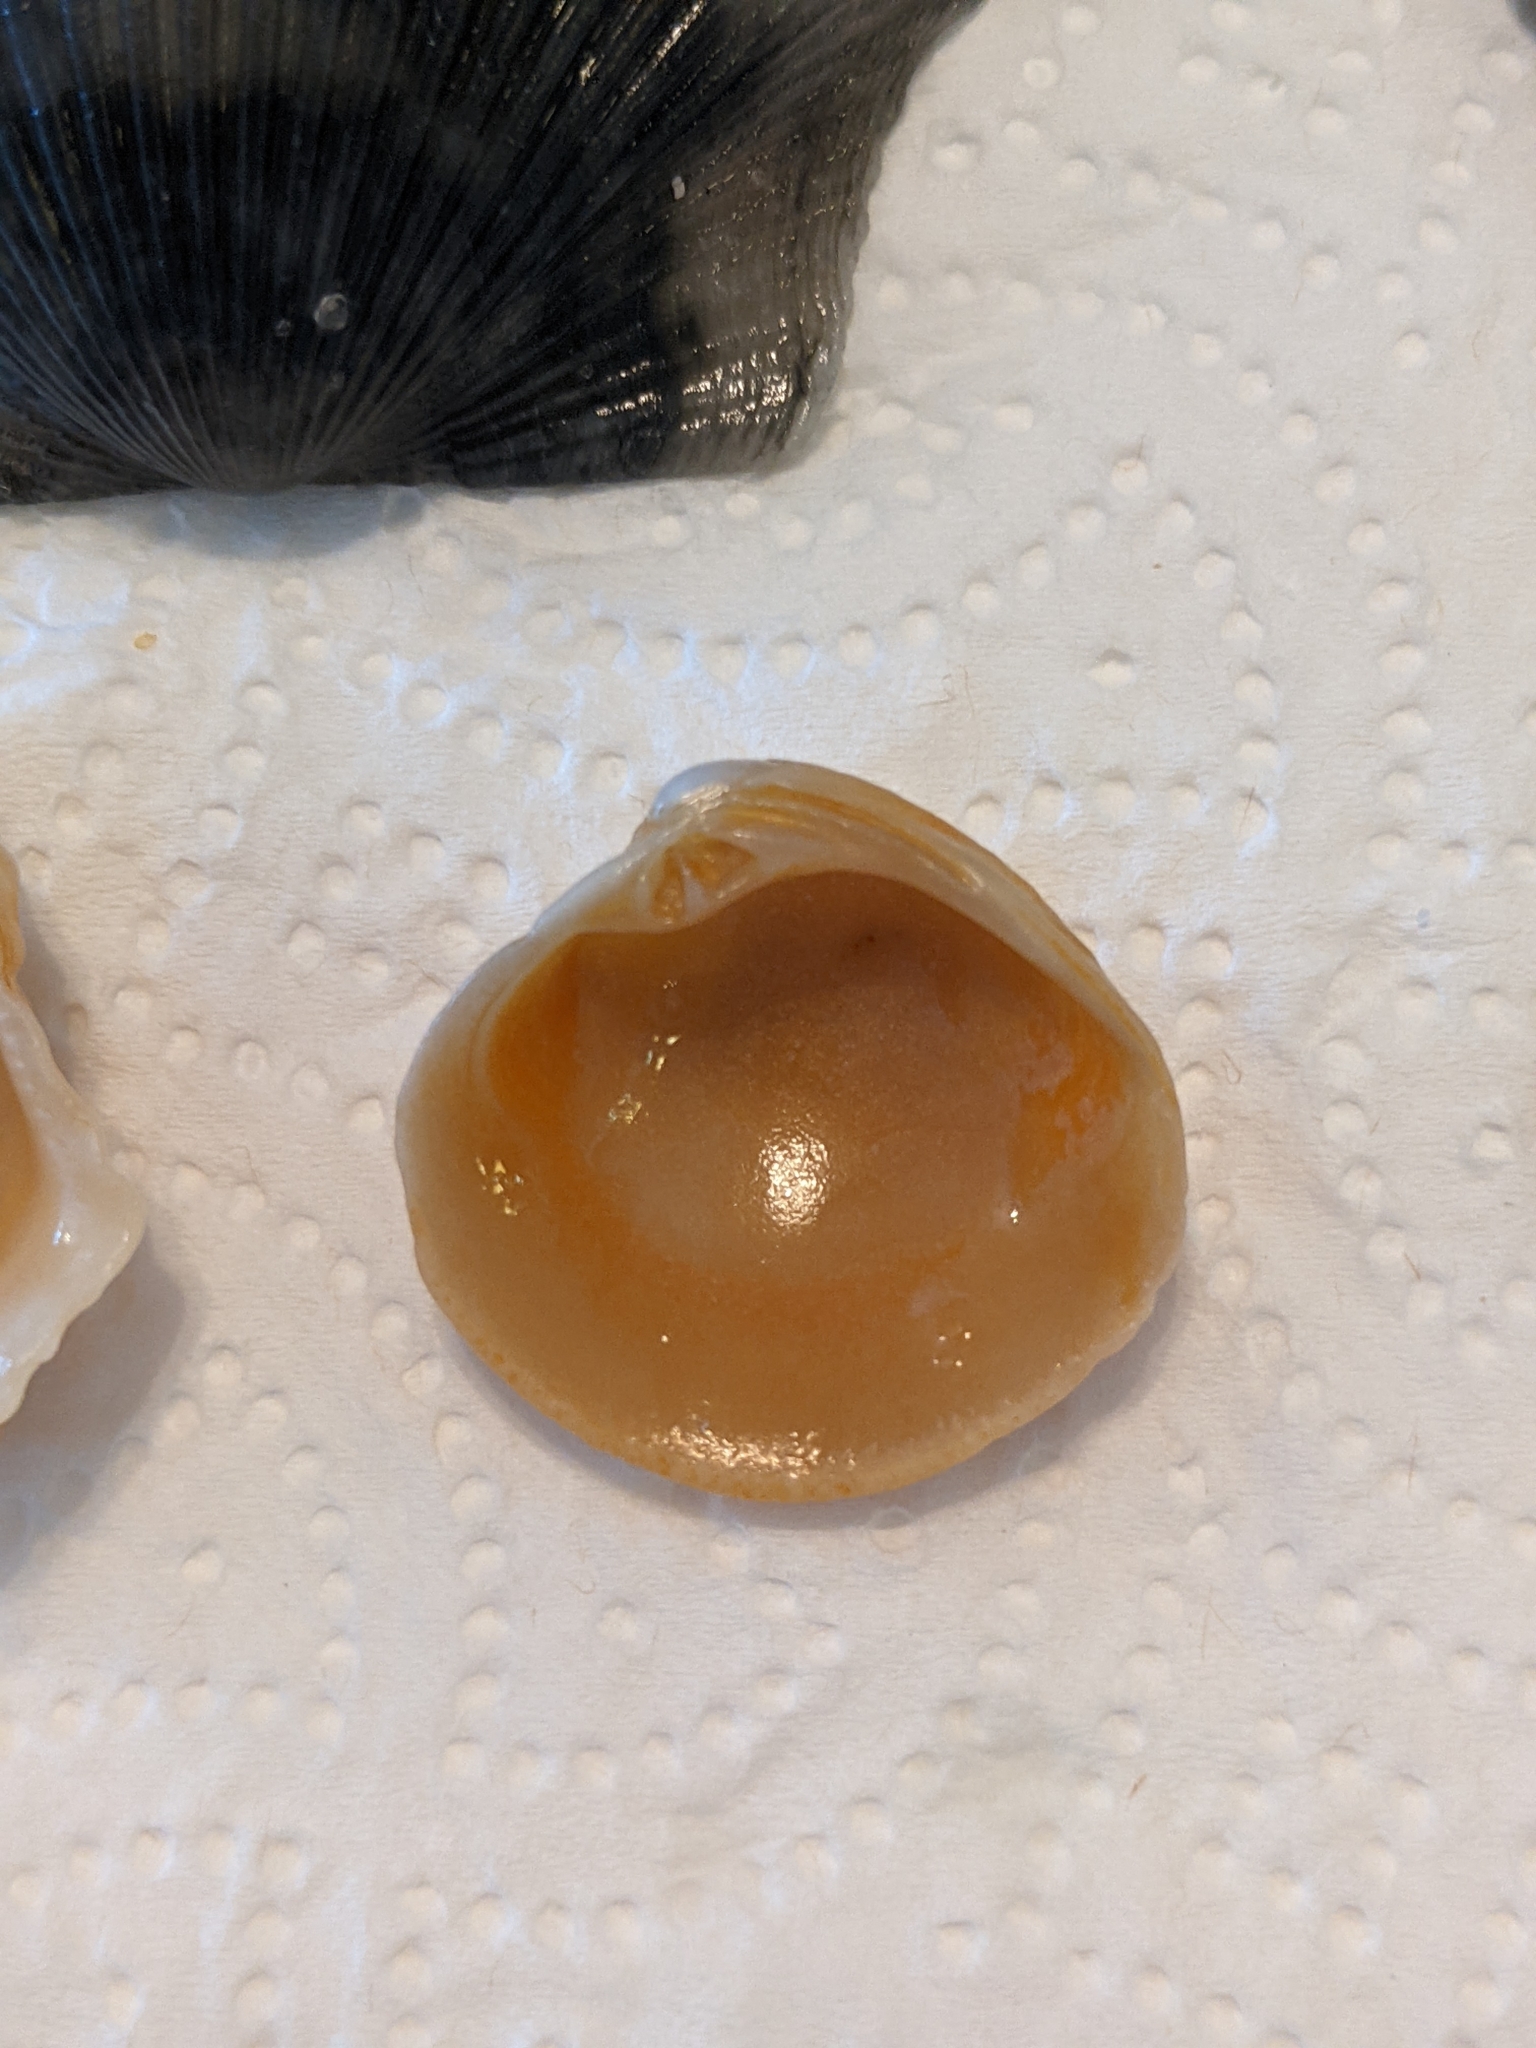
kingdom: Animalia
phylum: Mollusca
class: Bivalvia
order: Venerida
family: Veneridae
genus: Chionopsis
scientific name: Chionopsis intapurpurea
